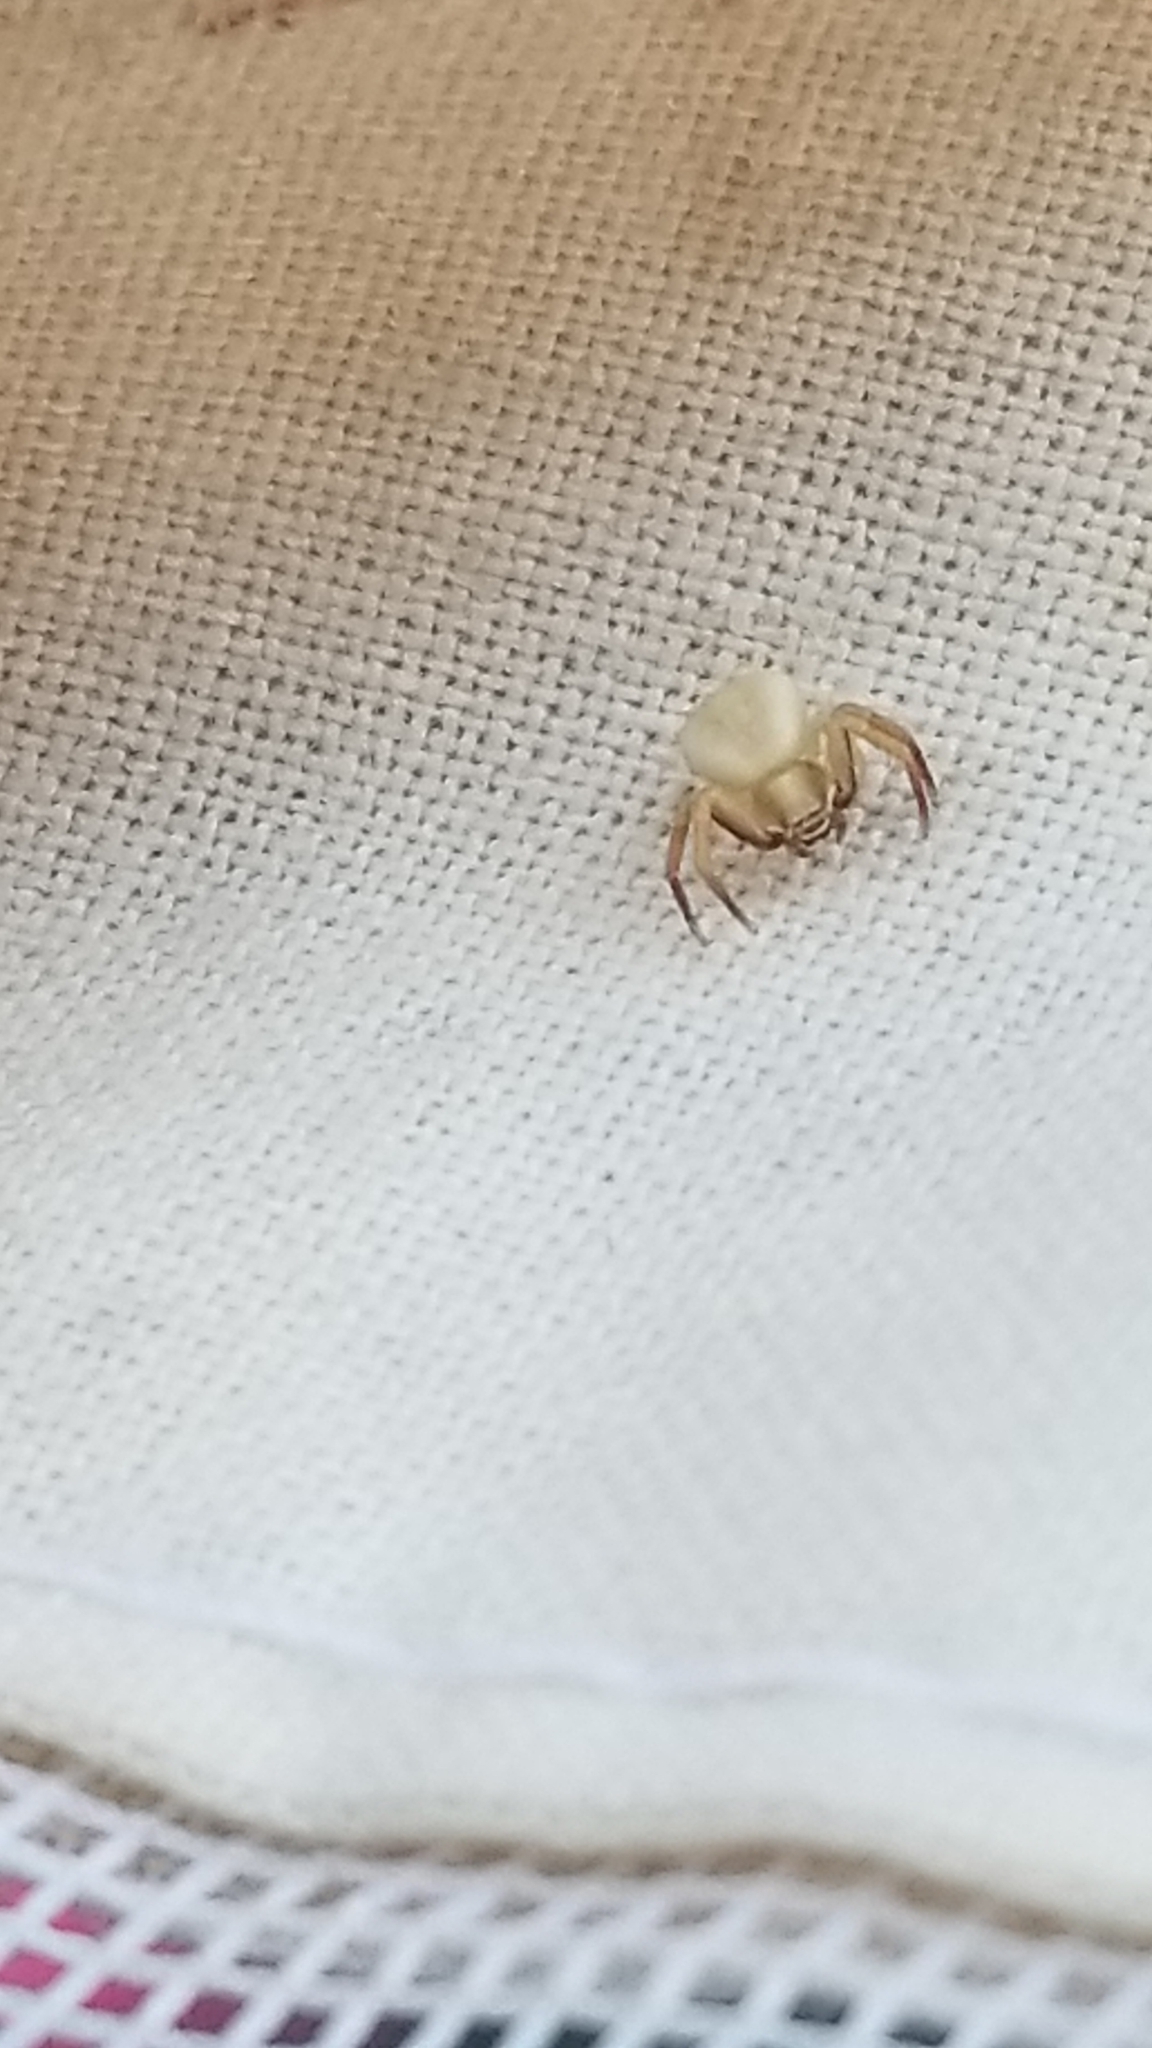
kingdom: Animalia
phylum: Arthropoda
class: Arachnida
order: Araneae
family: Thomisidae
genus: Misumenoides
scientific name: Misumenoides formosipes
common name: White-banded crab spider
